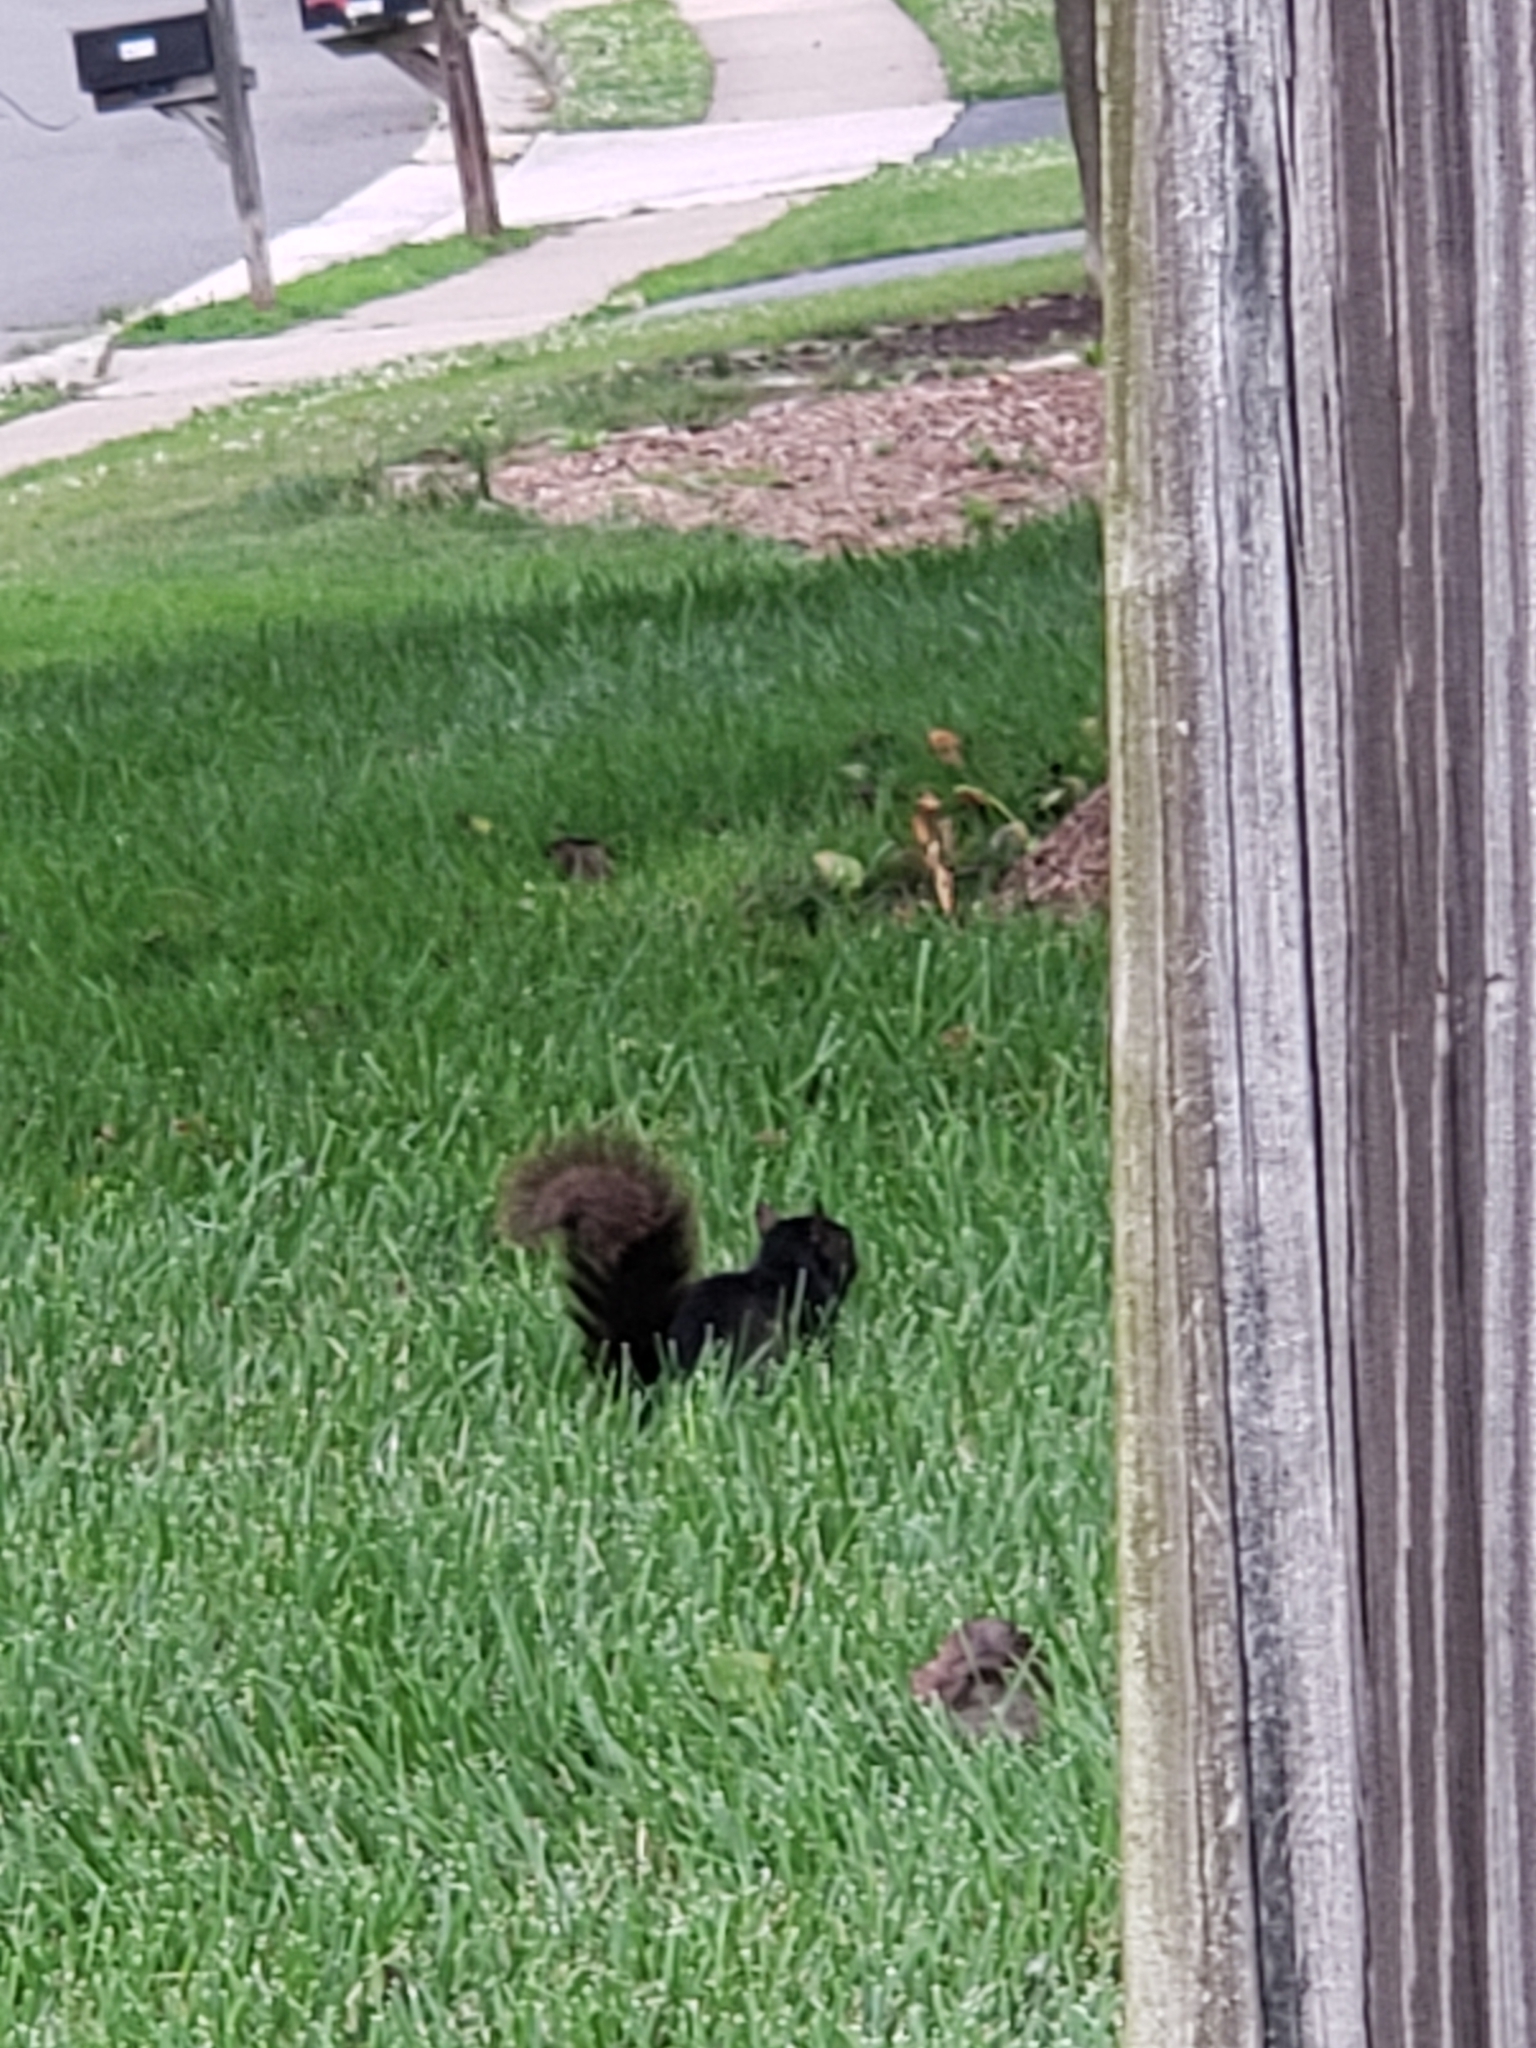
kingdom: Animalia
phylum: Chordata
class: Mammalia
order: Rodentia
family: Sciuridae
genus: Sciurus
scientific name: Sciurus carolinensis
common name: Eastern gray squirrel
